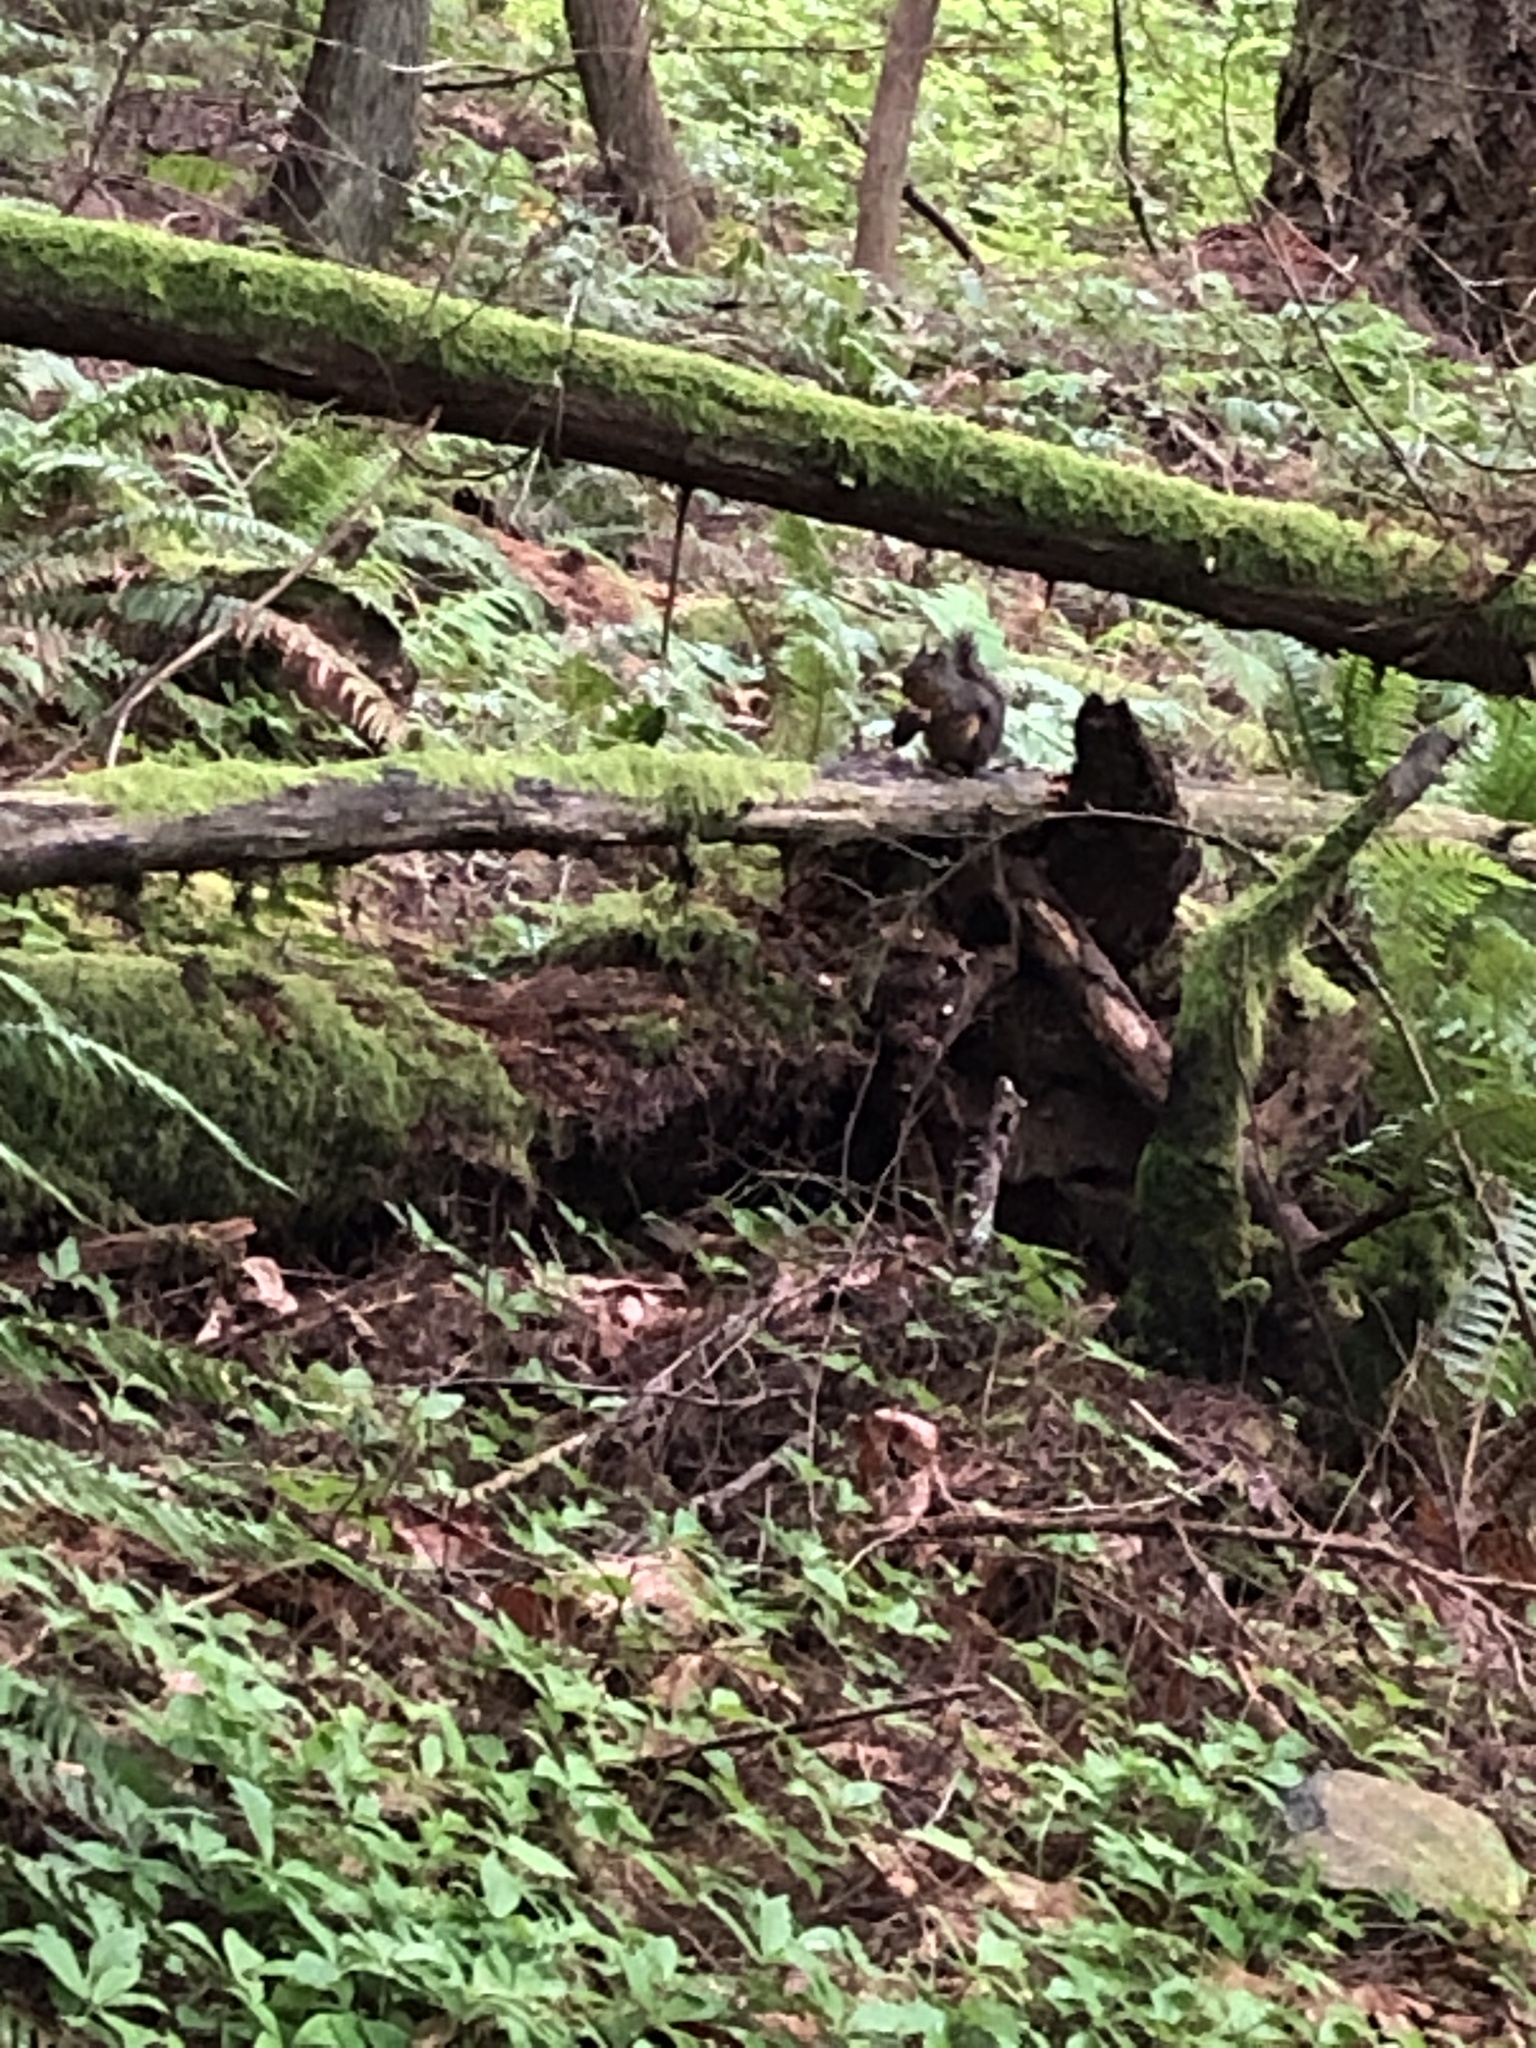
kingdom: Animalia
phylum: Chordata
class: Mammalia
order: Rodentia
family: Sciuridae
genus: Tamiasciurus
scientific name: Tamiasciurus douglasii
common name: Douglas's squirrel
